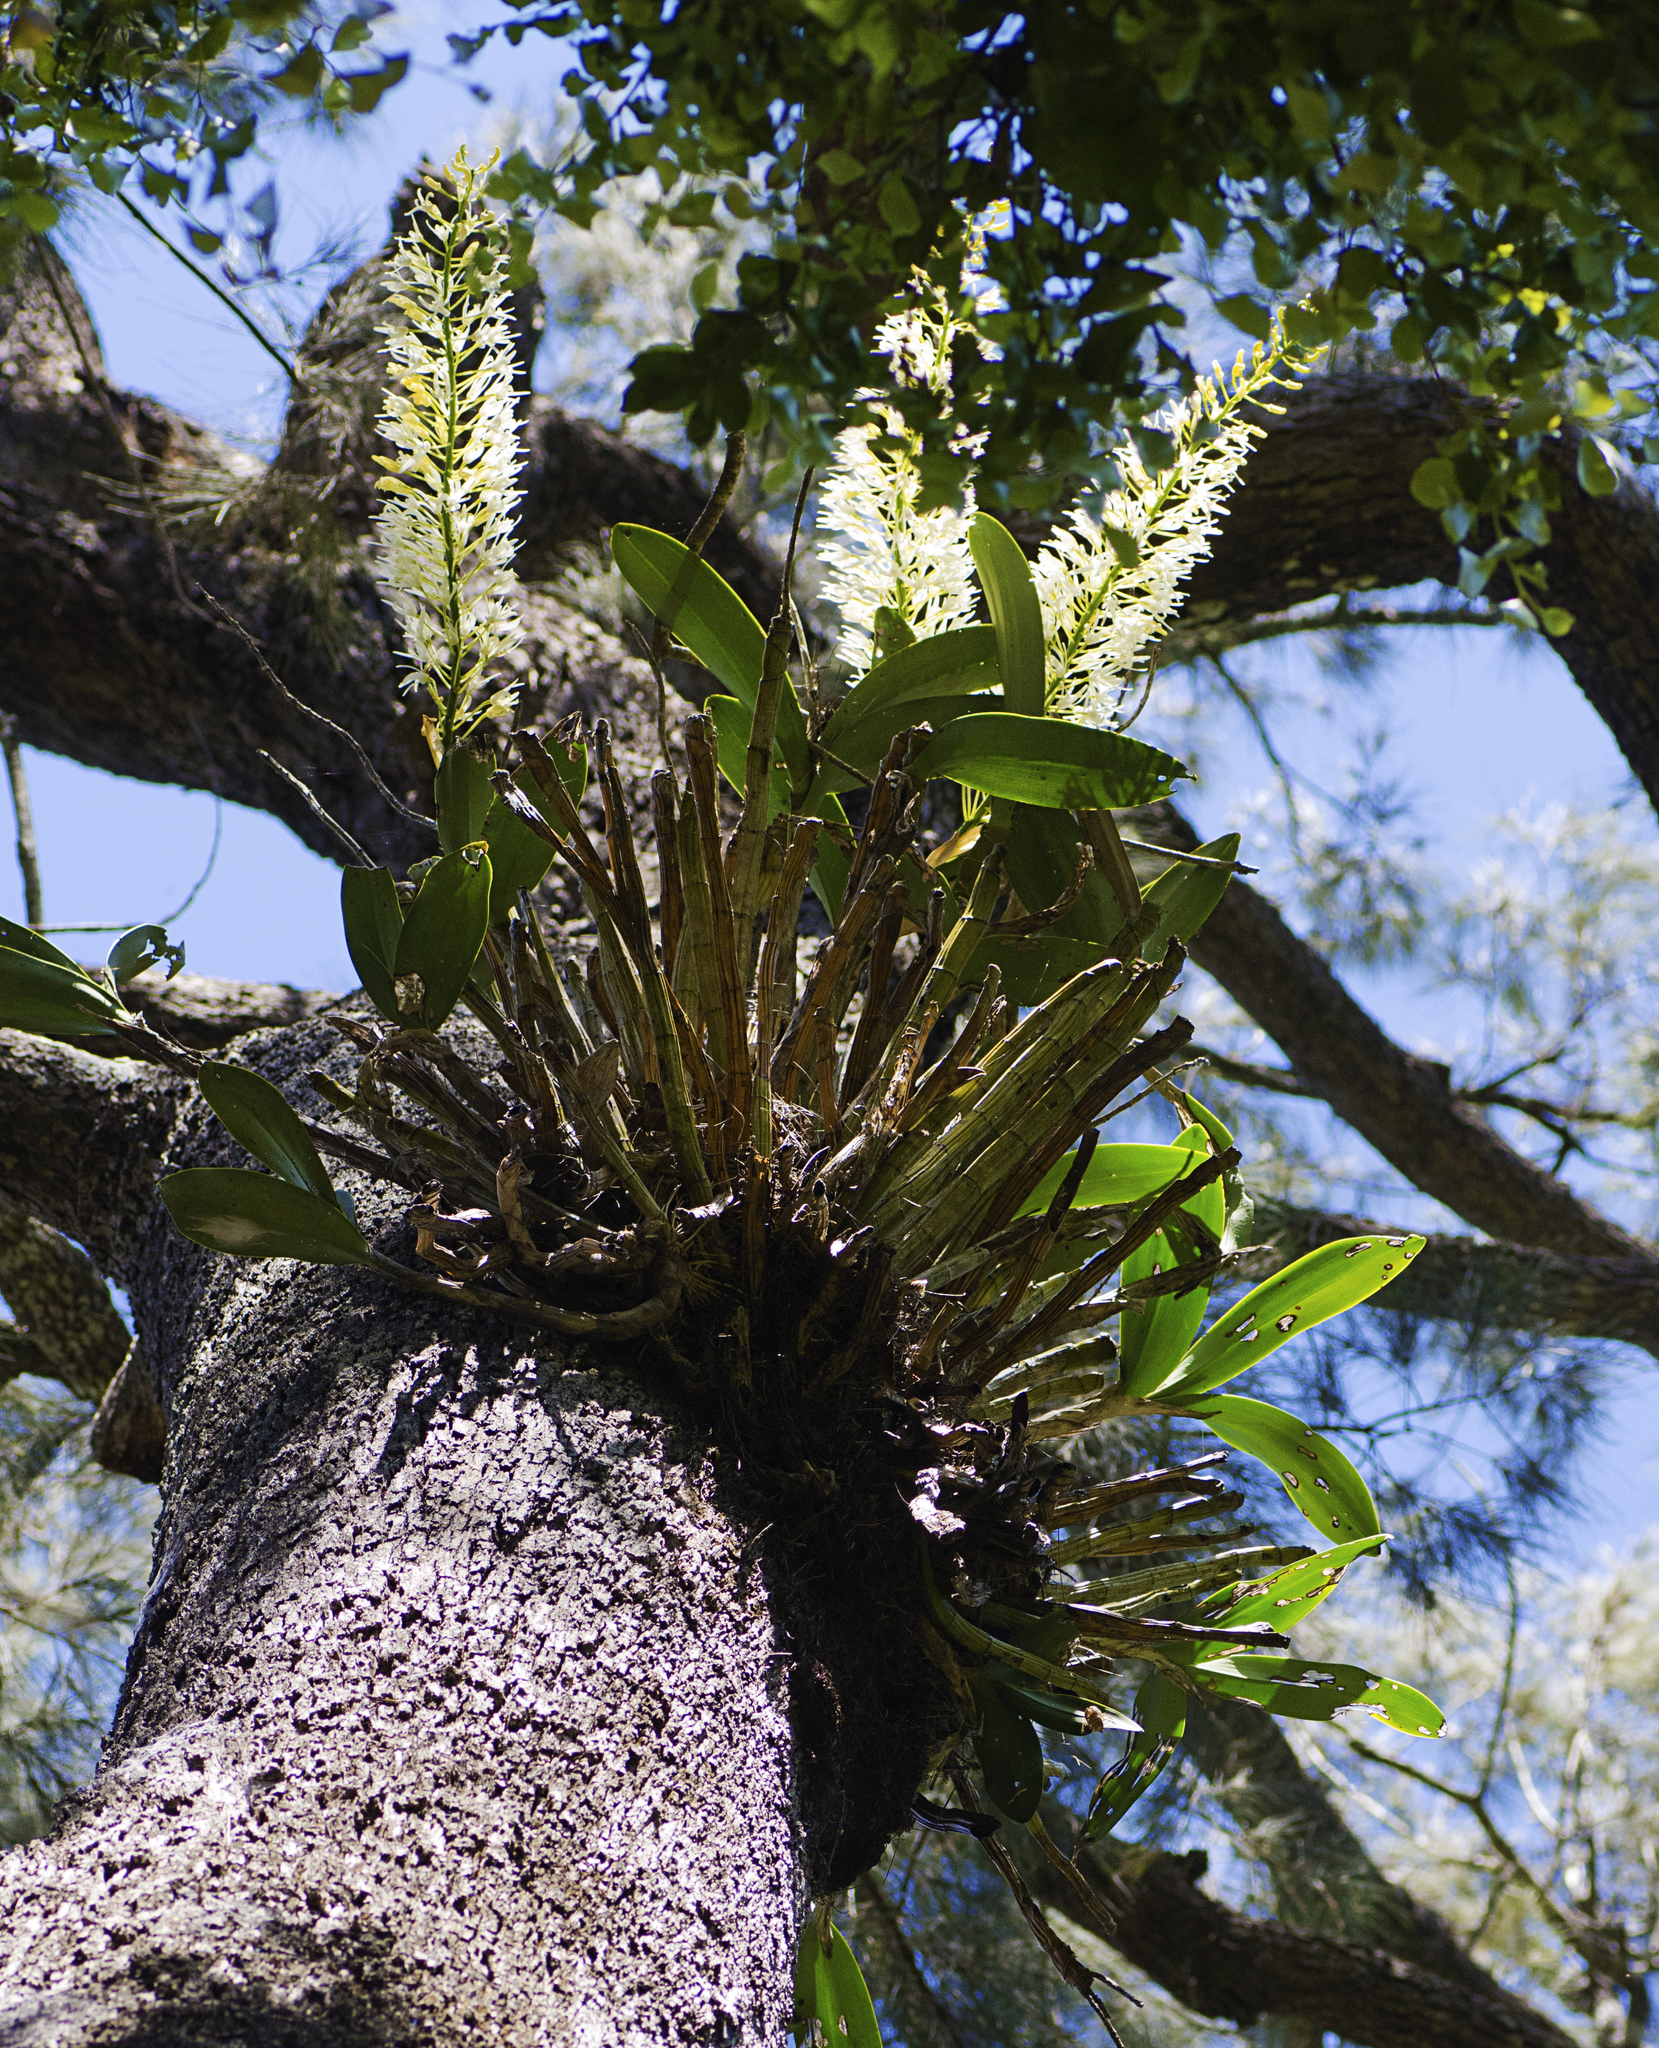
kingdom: Plantae
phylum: Tracheophyta
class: Liliopsida
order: Asparagales
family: Orchidaceae
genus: Dendrobium
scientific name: Dendrobium speciosum
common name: Rock-lily
